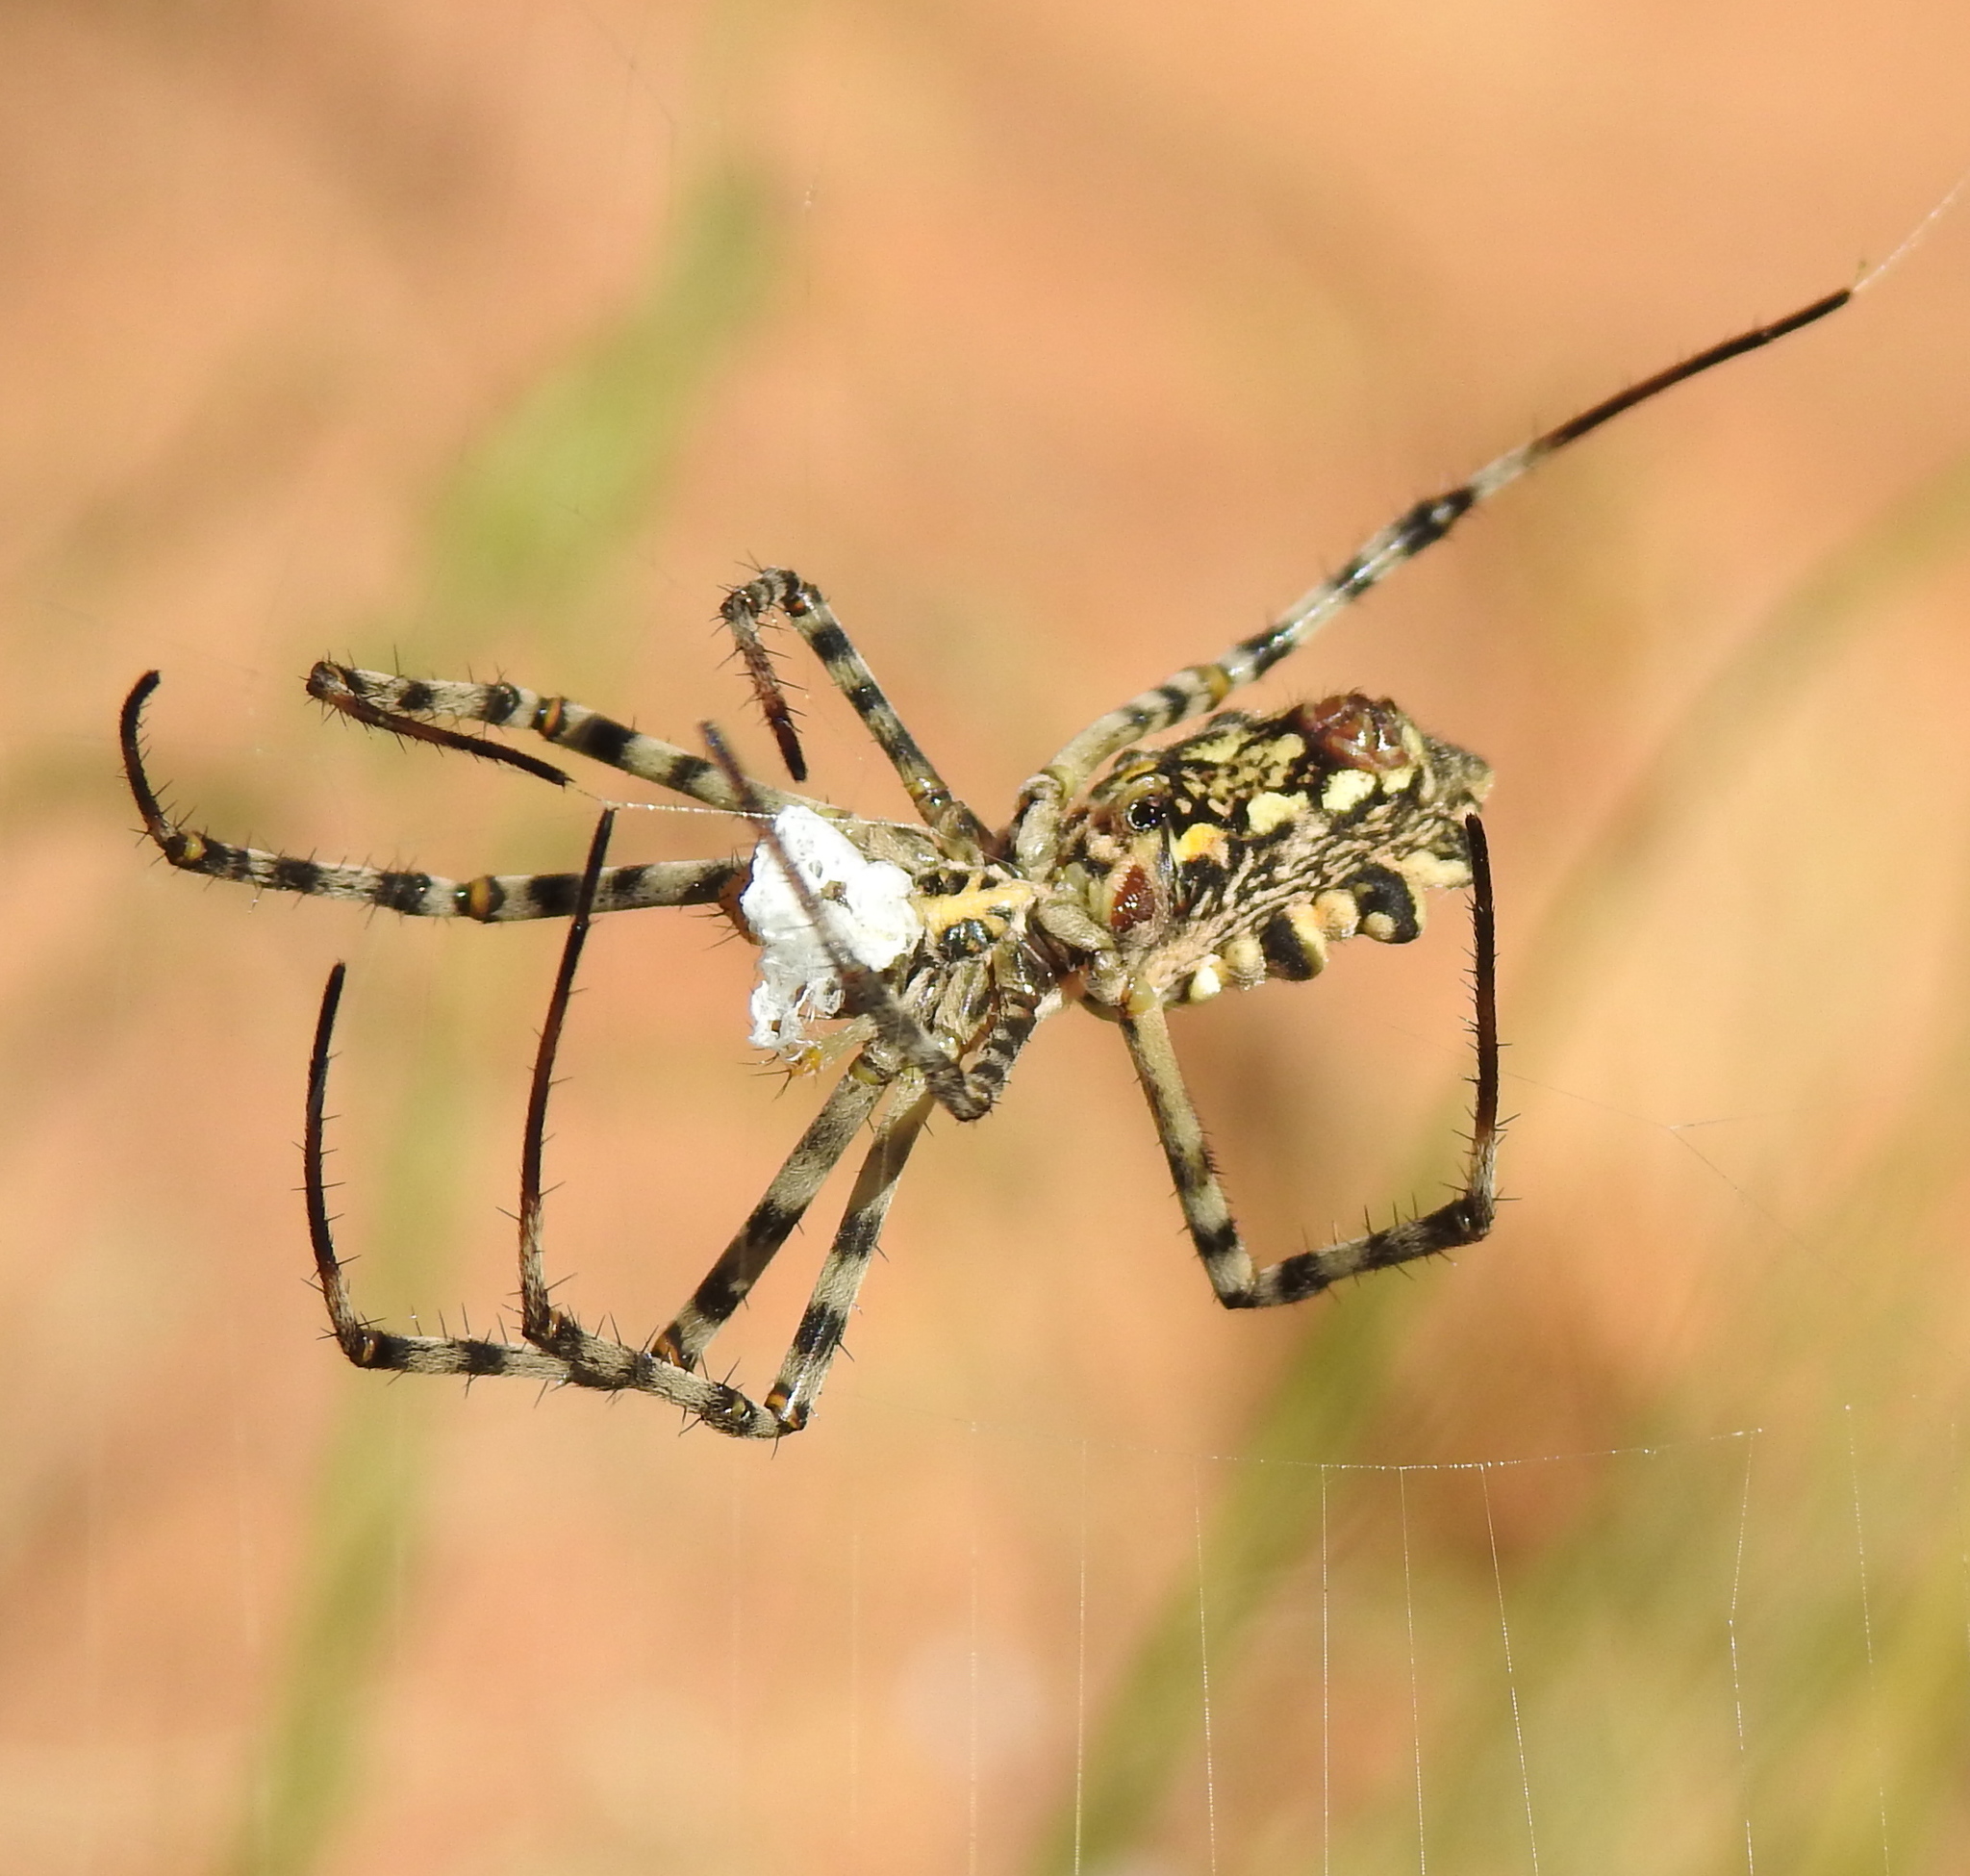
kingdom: Animalia
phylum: Arthropoda
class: Arachnida
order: Araneae
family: Araneidae
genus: Argiope
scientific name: Argiope australis
